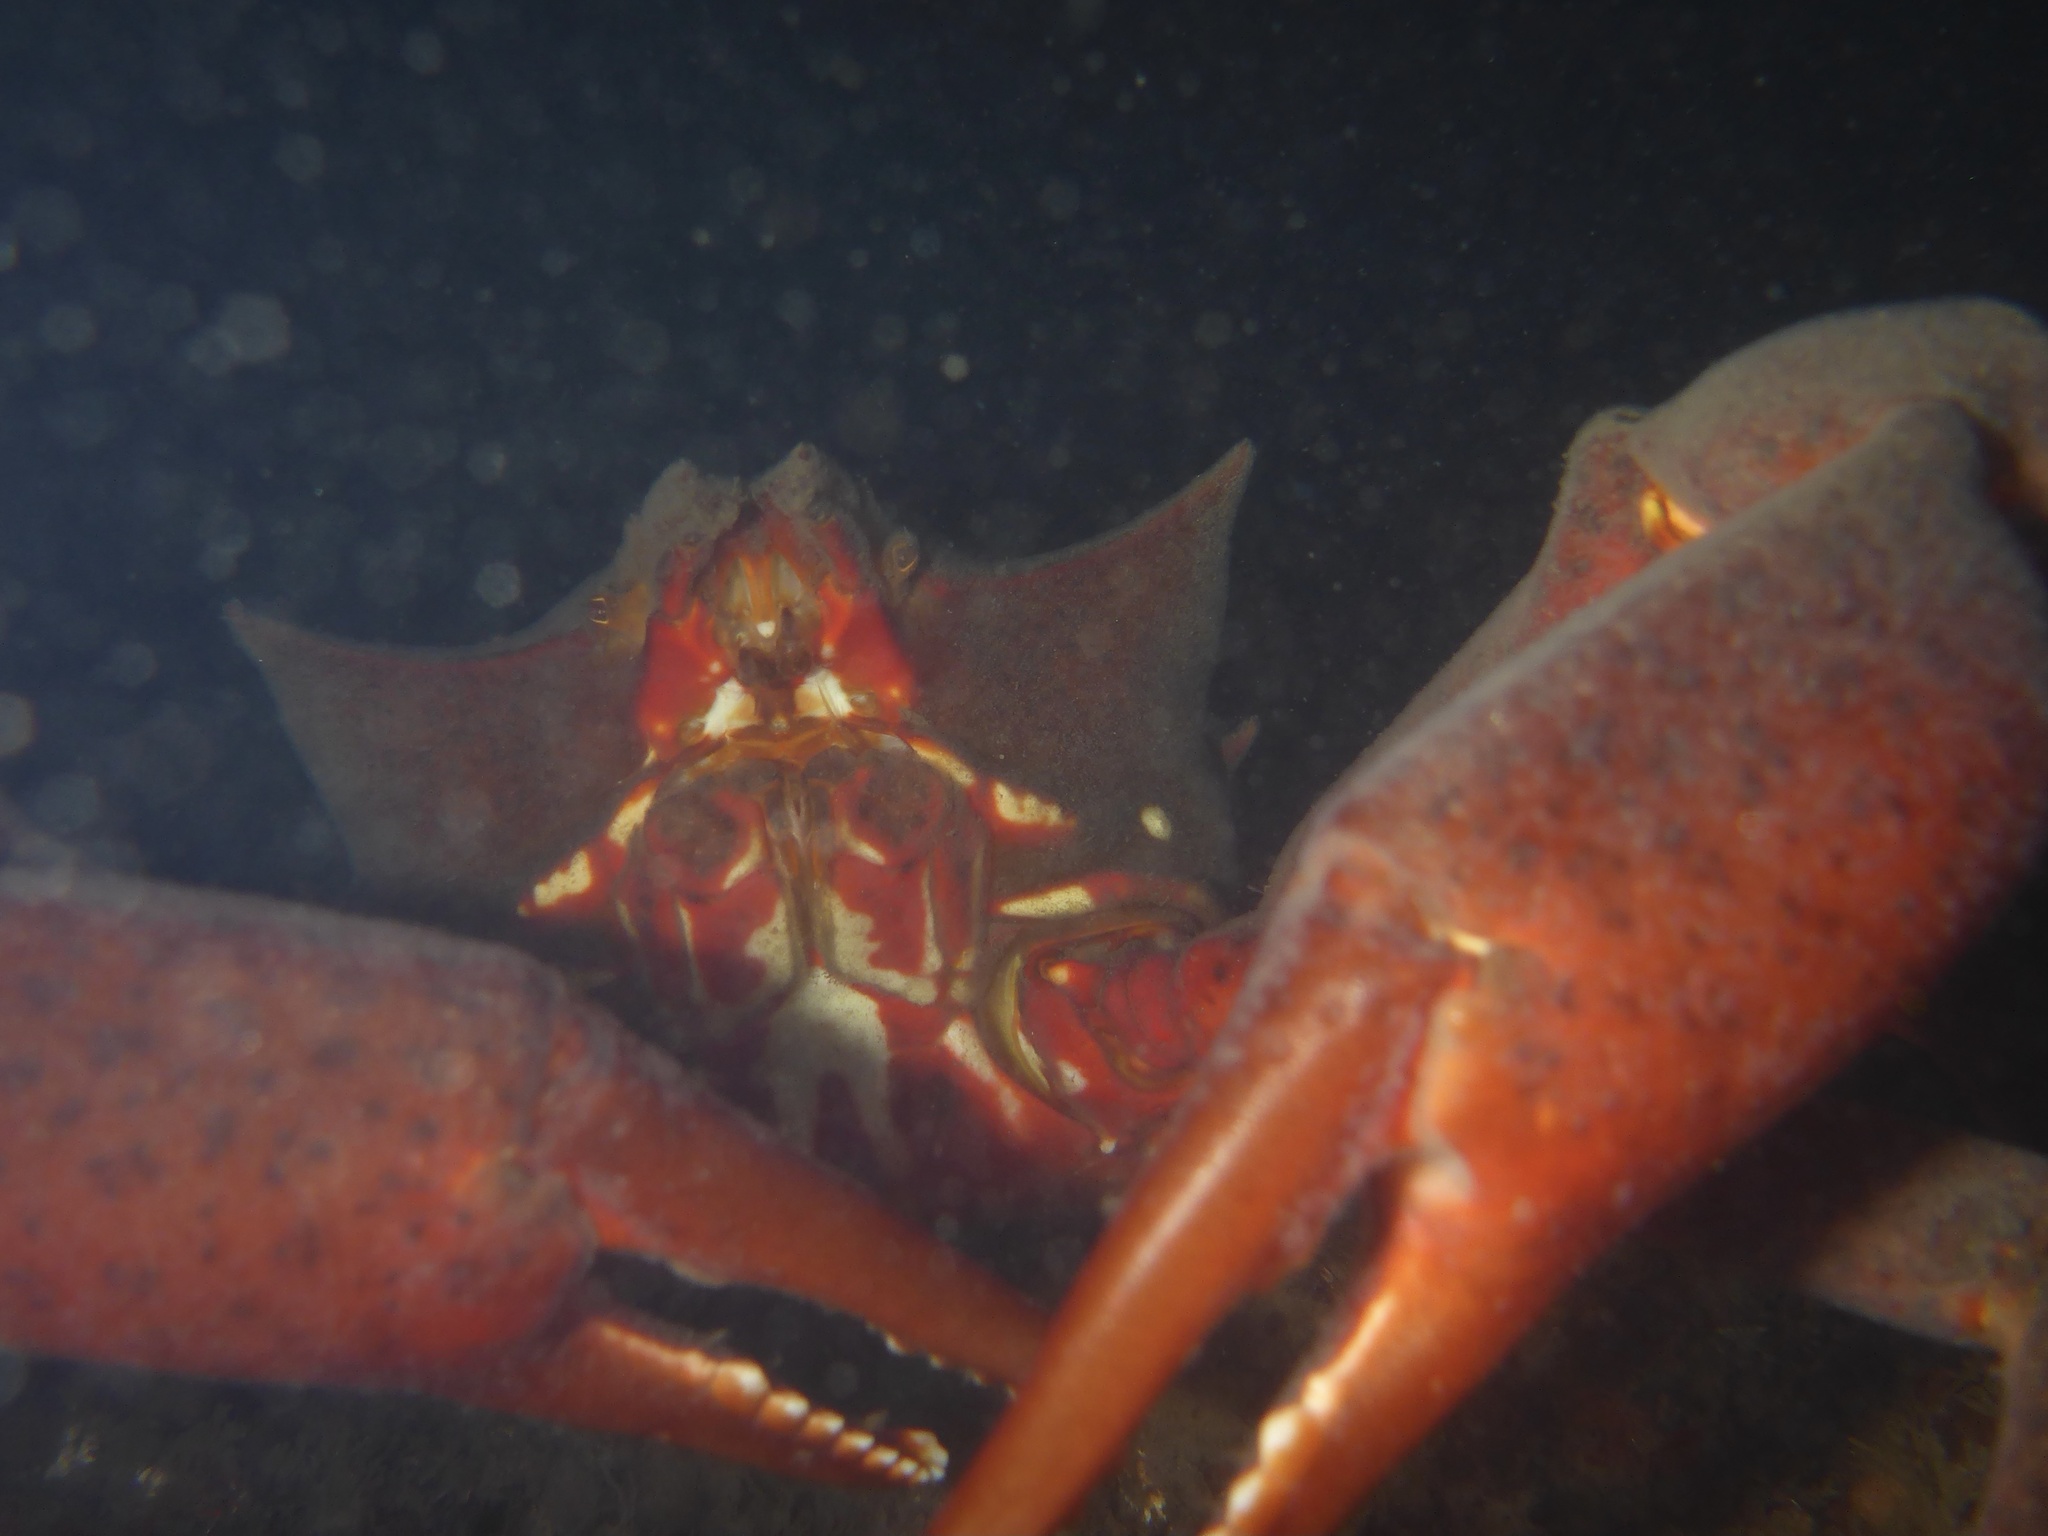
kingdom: Animalia
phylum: Arthropoda
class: Malacostraca
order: Decapoda
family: Epialtidae
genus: Pugettia
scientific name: Pugettia producta
